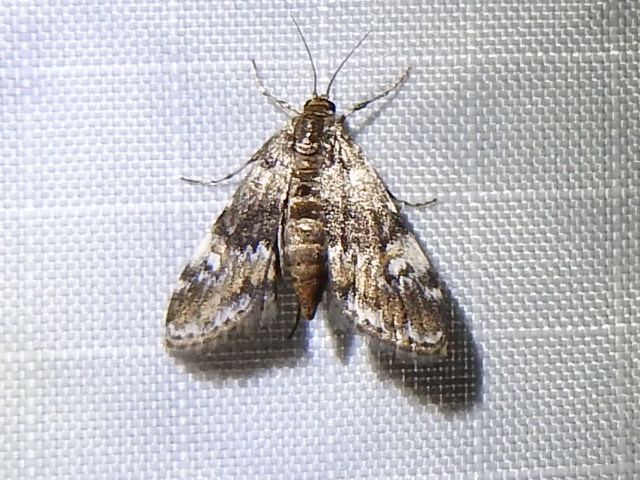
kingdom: Animalia
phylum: Arthropoda
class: Insecta
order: Lepidoptera
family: Crambidae
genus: Elophila
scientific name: Elophila obliteralis
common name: Waterlily leafcutter moth
